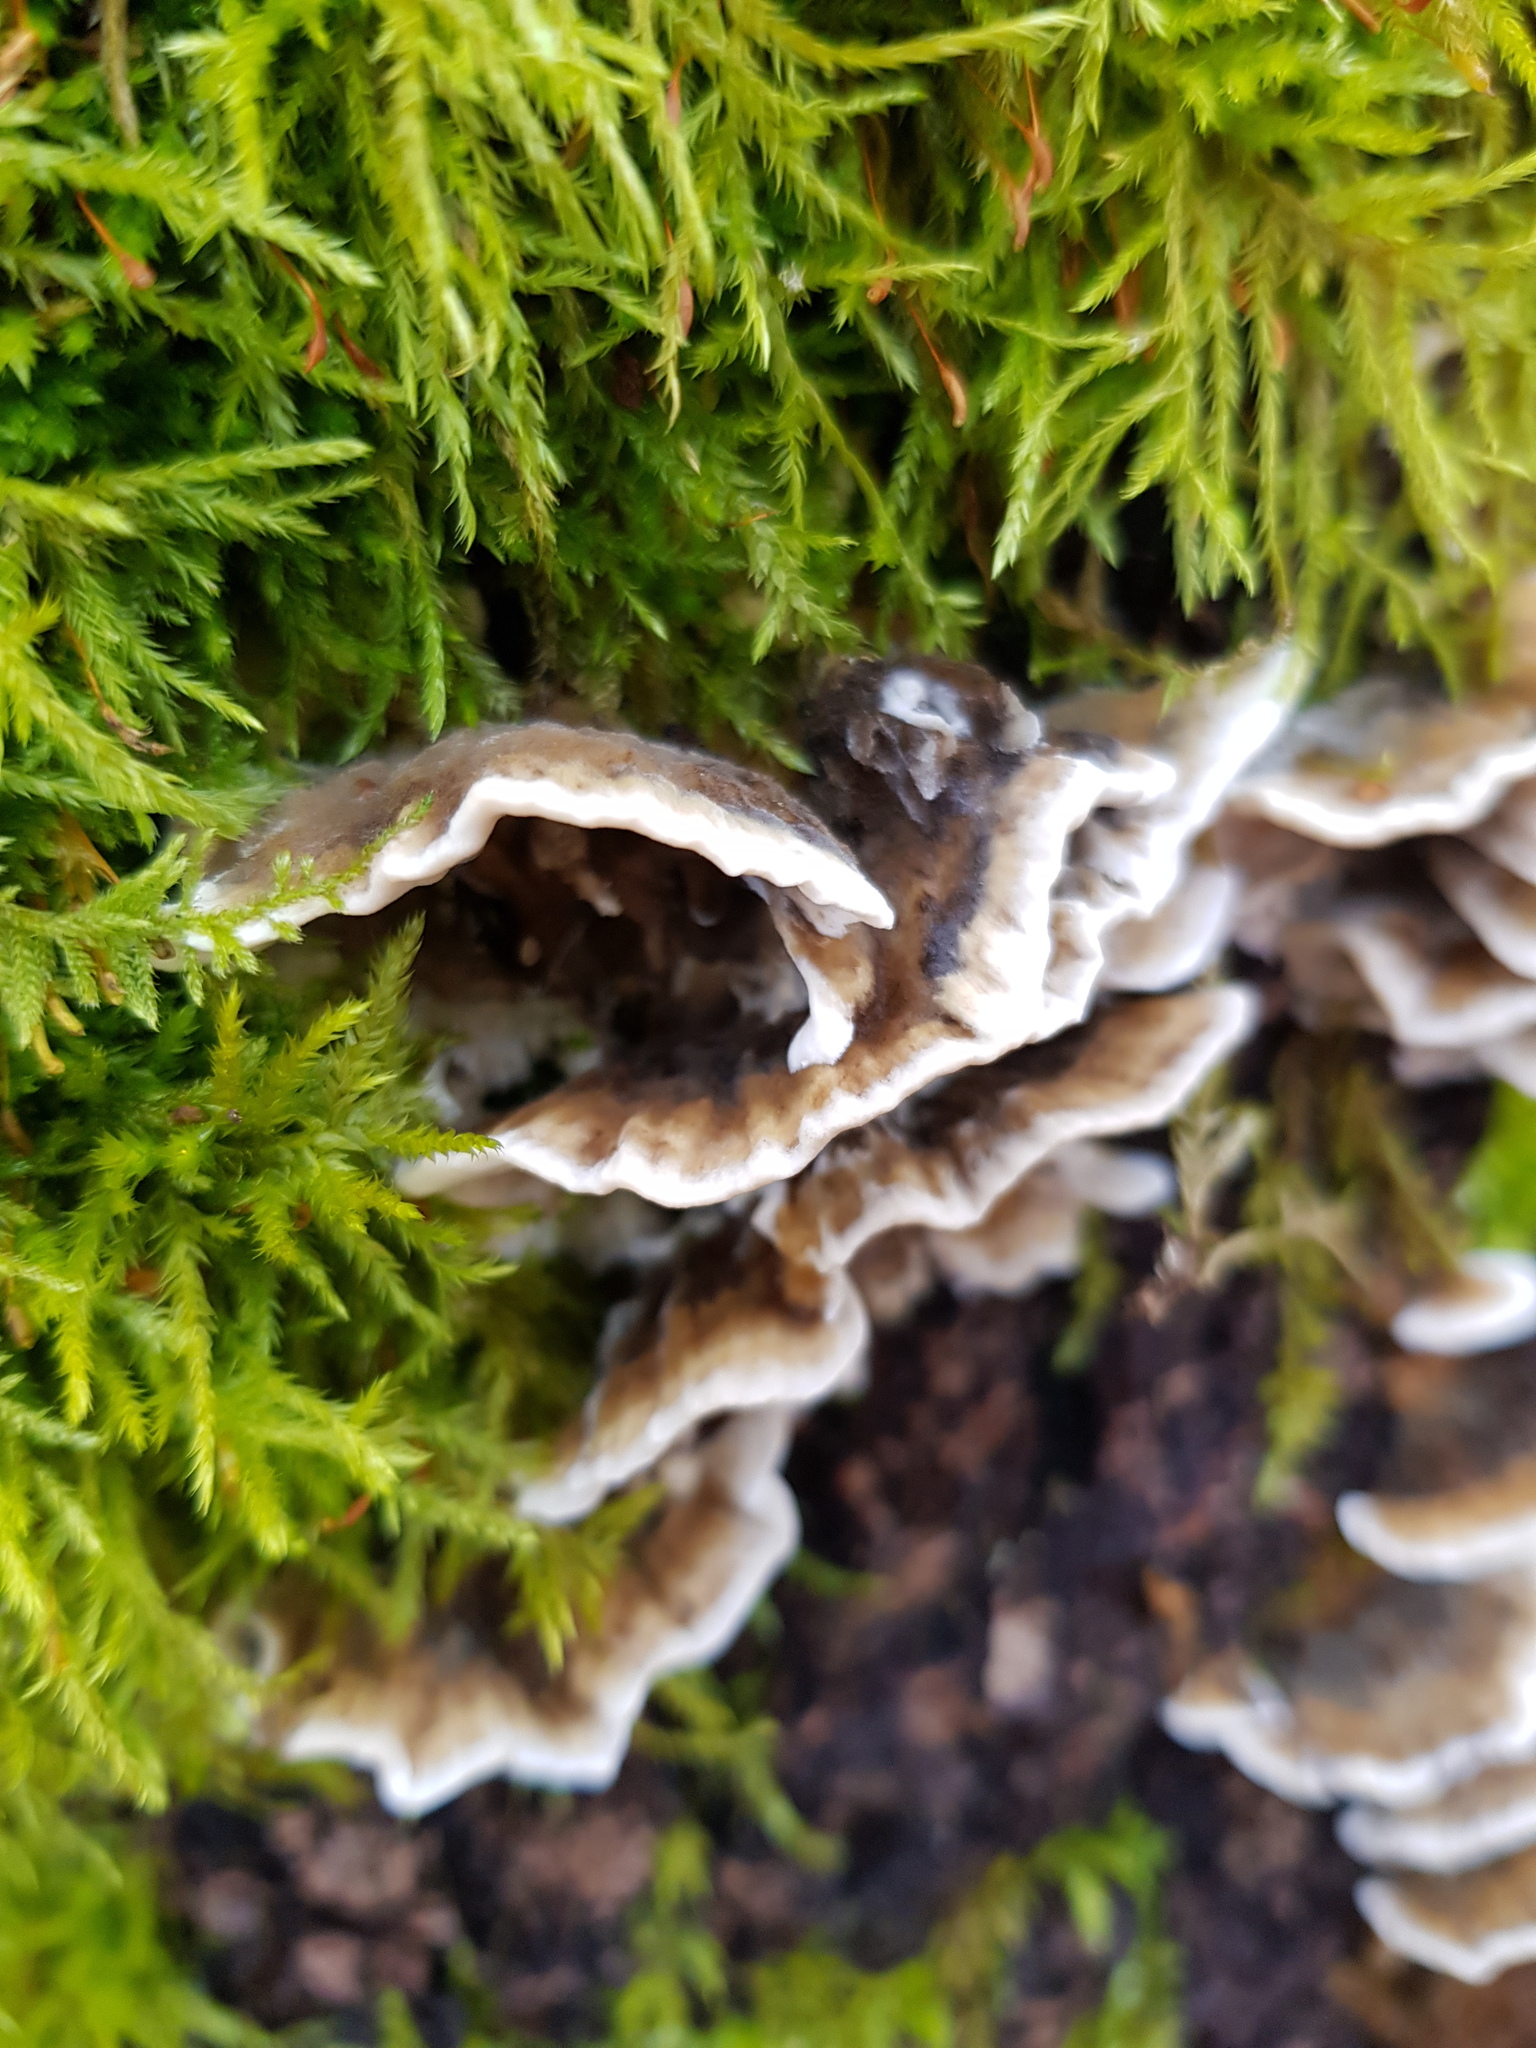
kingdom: Fungi
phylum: Basidiomycota
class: Agaricomycetes
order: Polyporales
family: Phanerochaetaceae
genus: Bjerkandera
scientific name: Bjerkandera adusta
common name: Smoky bracket
